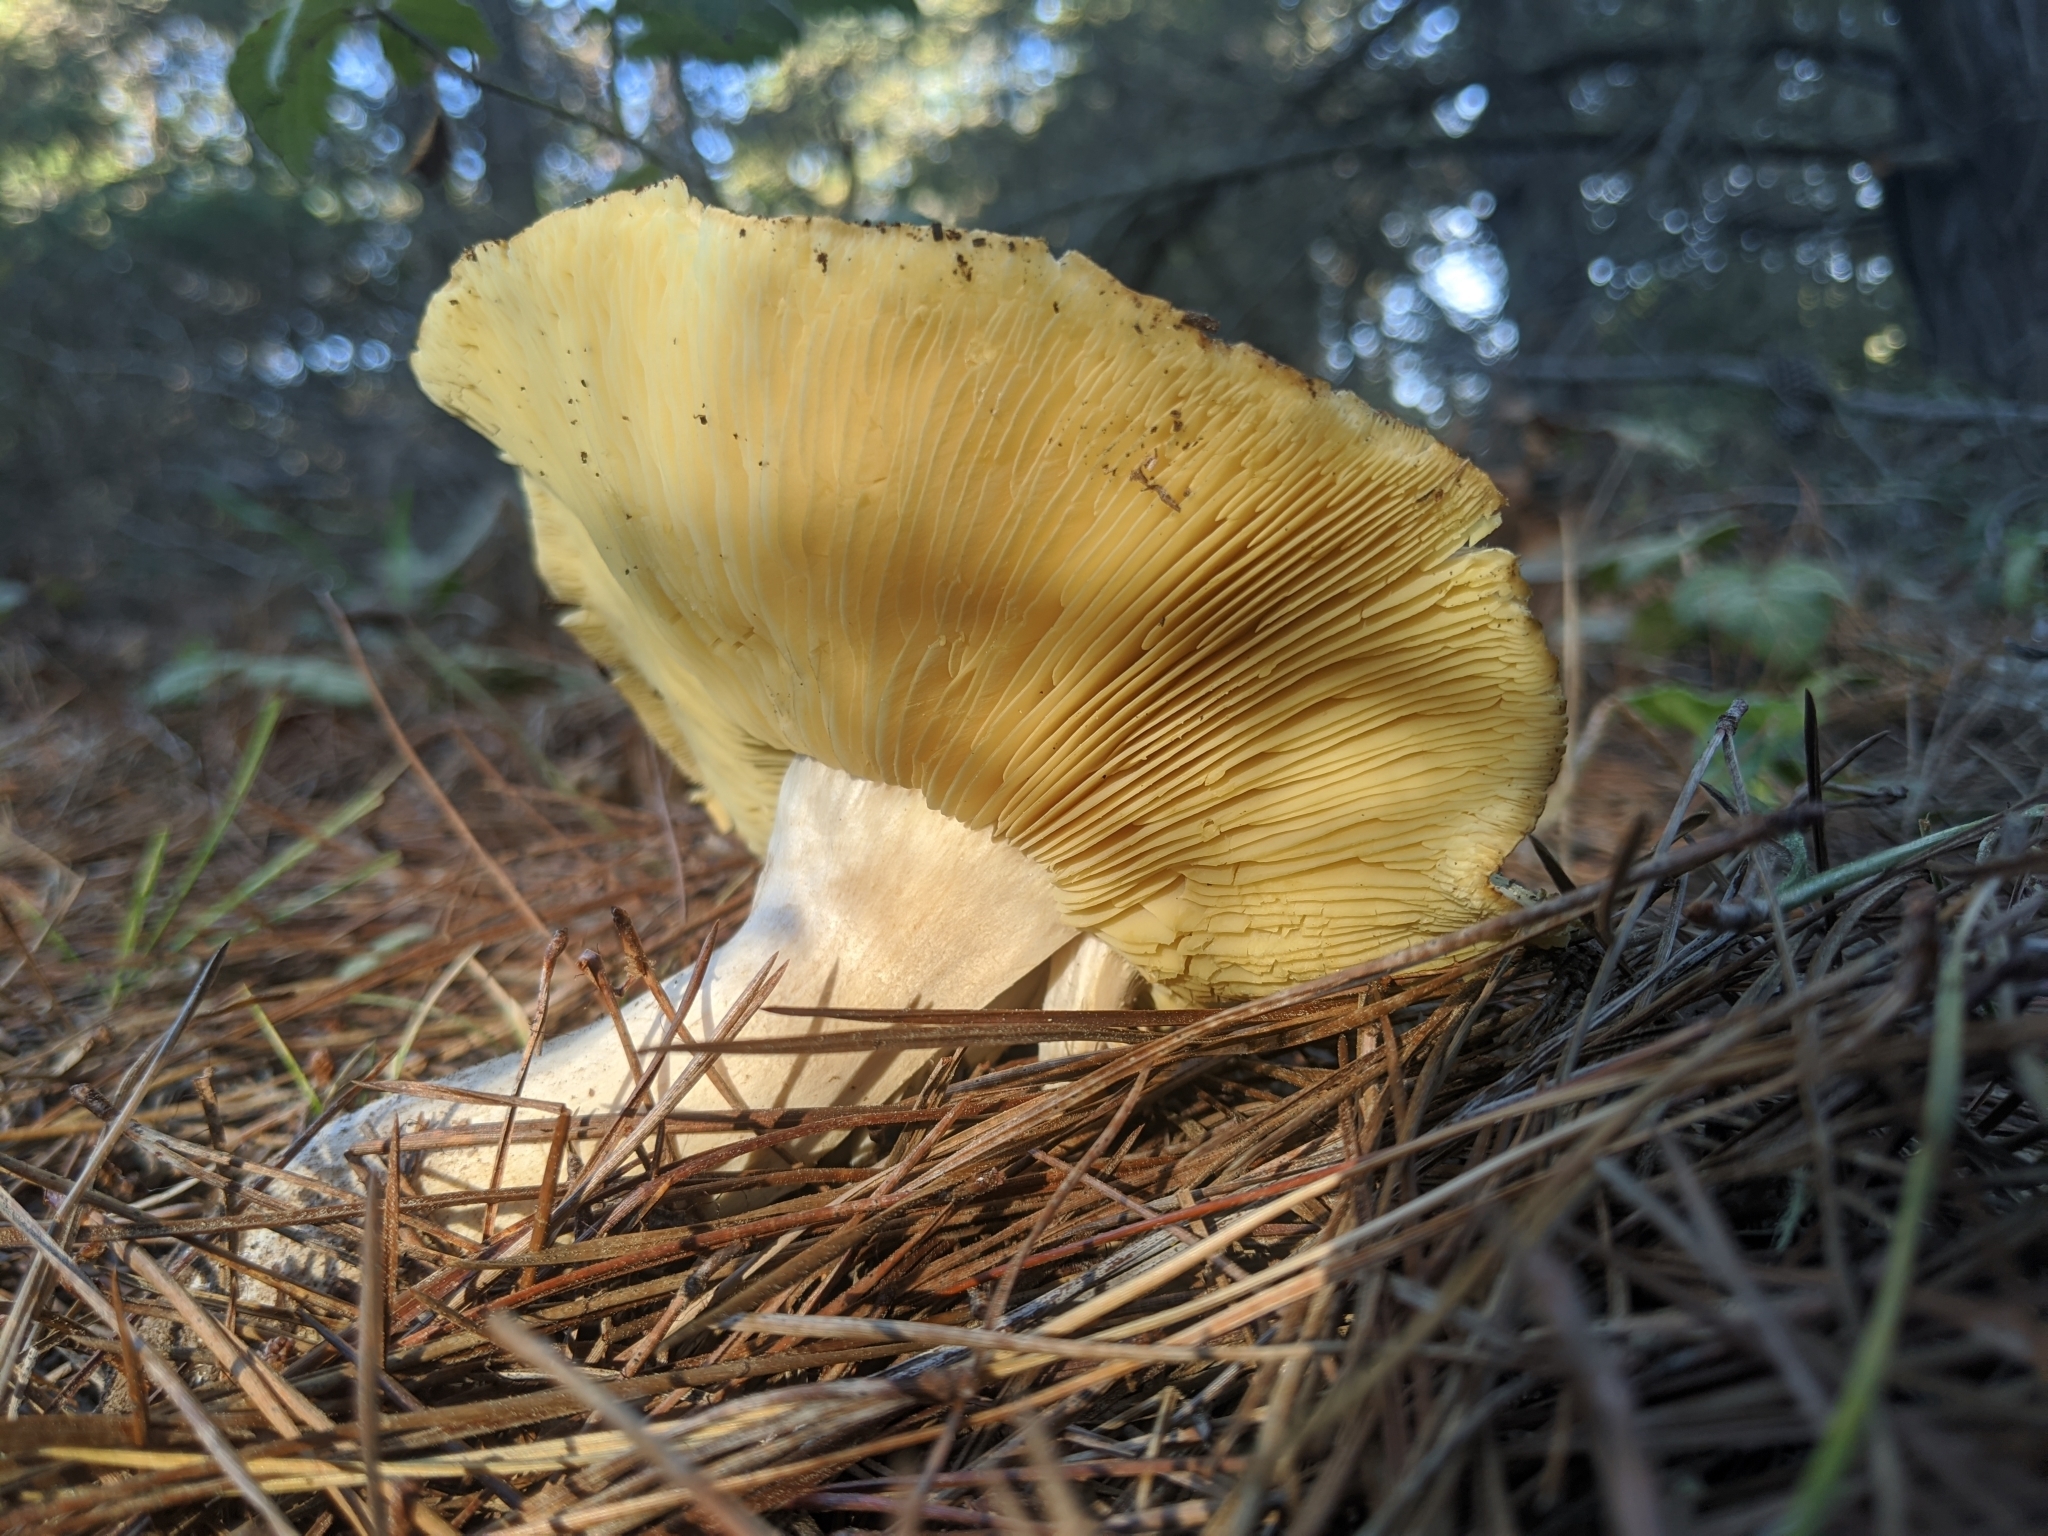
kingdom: Fungi
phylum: Basidiomycota
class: Agaricomycetes
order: Agaricales
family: Tricholomataceae
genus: Tricholoma
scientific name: Tricholoma equestre
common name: Yellow knight
